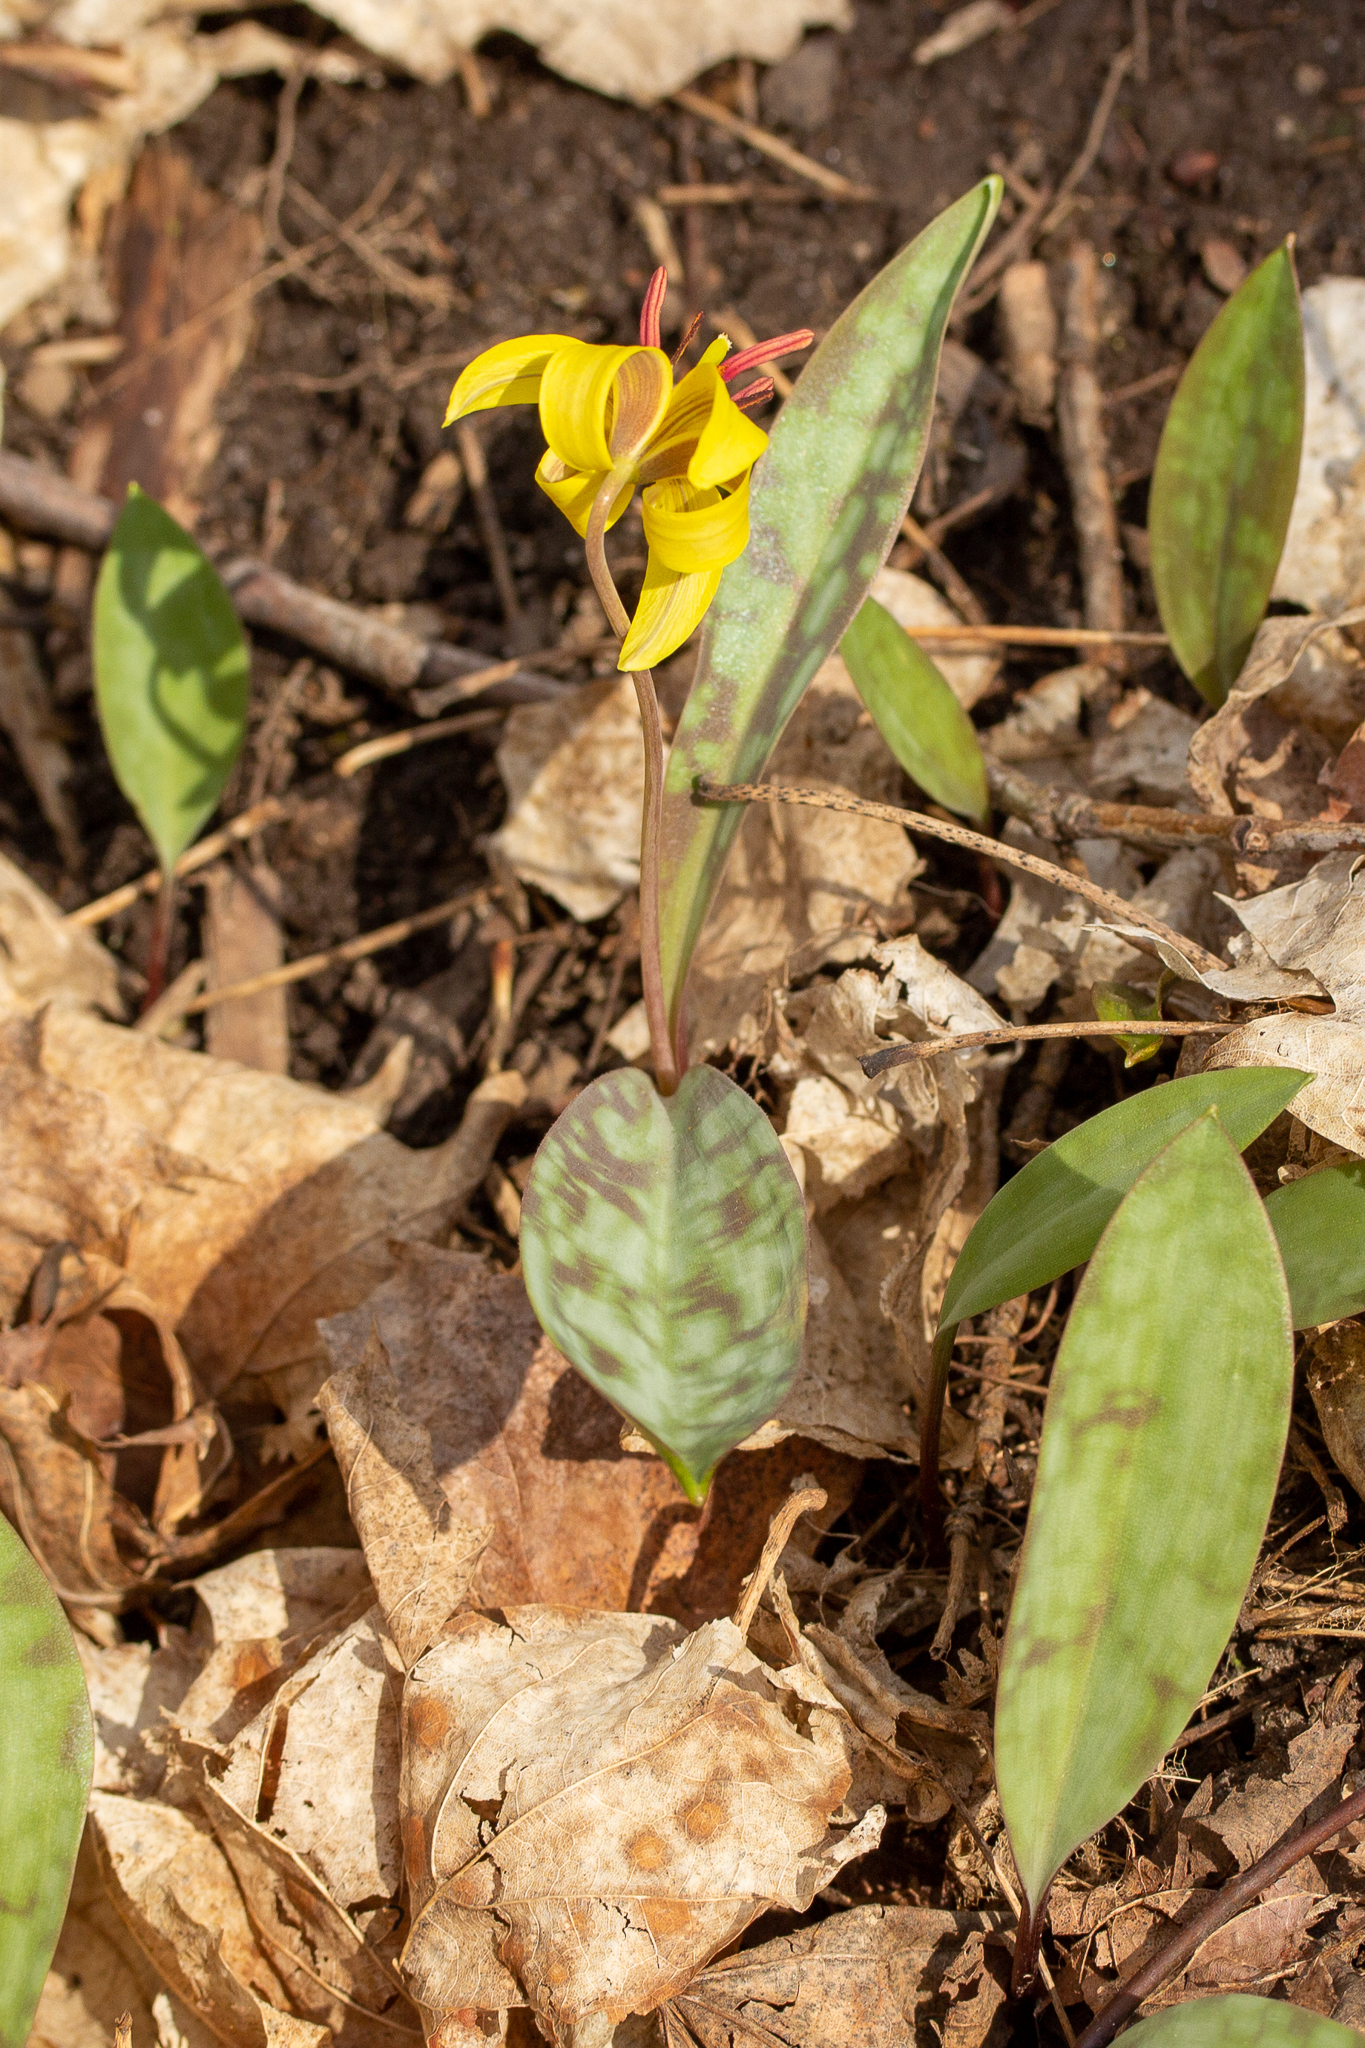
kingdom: Plantae
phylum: Tracheophyta
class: Liliopsida
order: Liliales
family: Liliaceae
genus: Erythronium
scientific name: Erythronium americanum
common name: Yellow adder's-tongue
